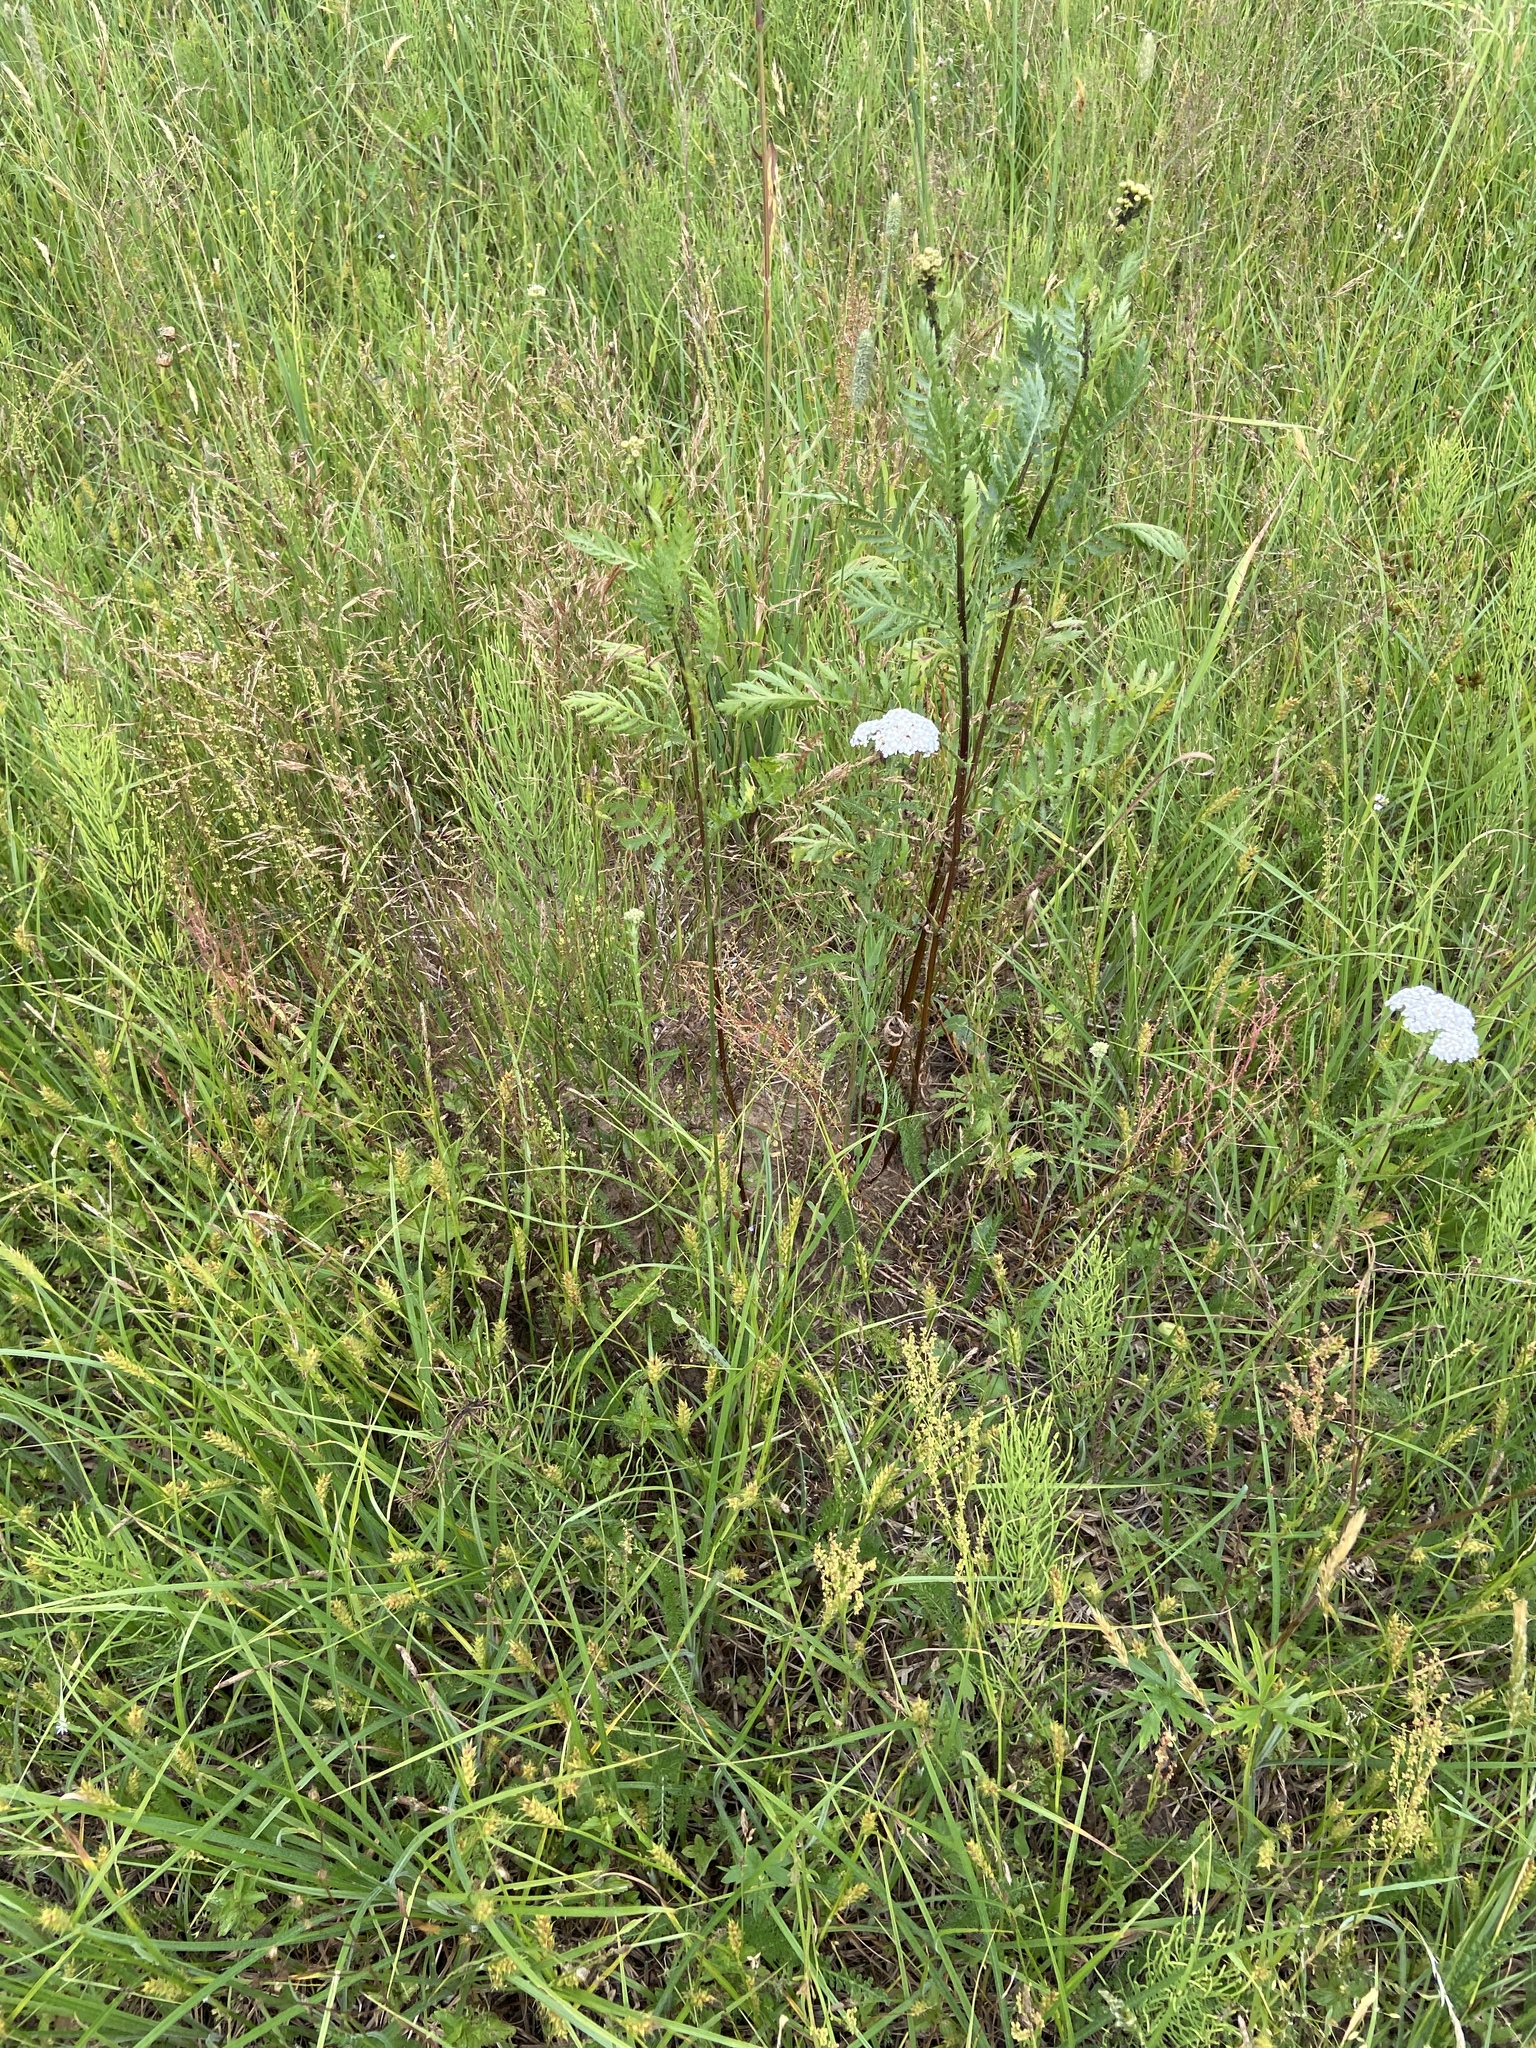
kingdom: Plantae
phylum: Tracheophyta
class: Magnoliopsida
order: Asterales
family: Asteraceae
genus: Tanacetum
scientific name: Tanacetum vulgare
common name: Common tansy
